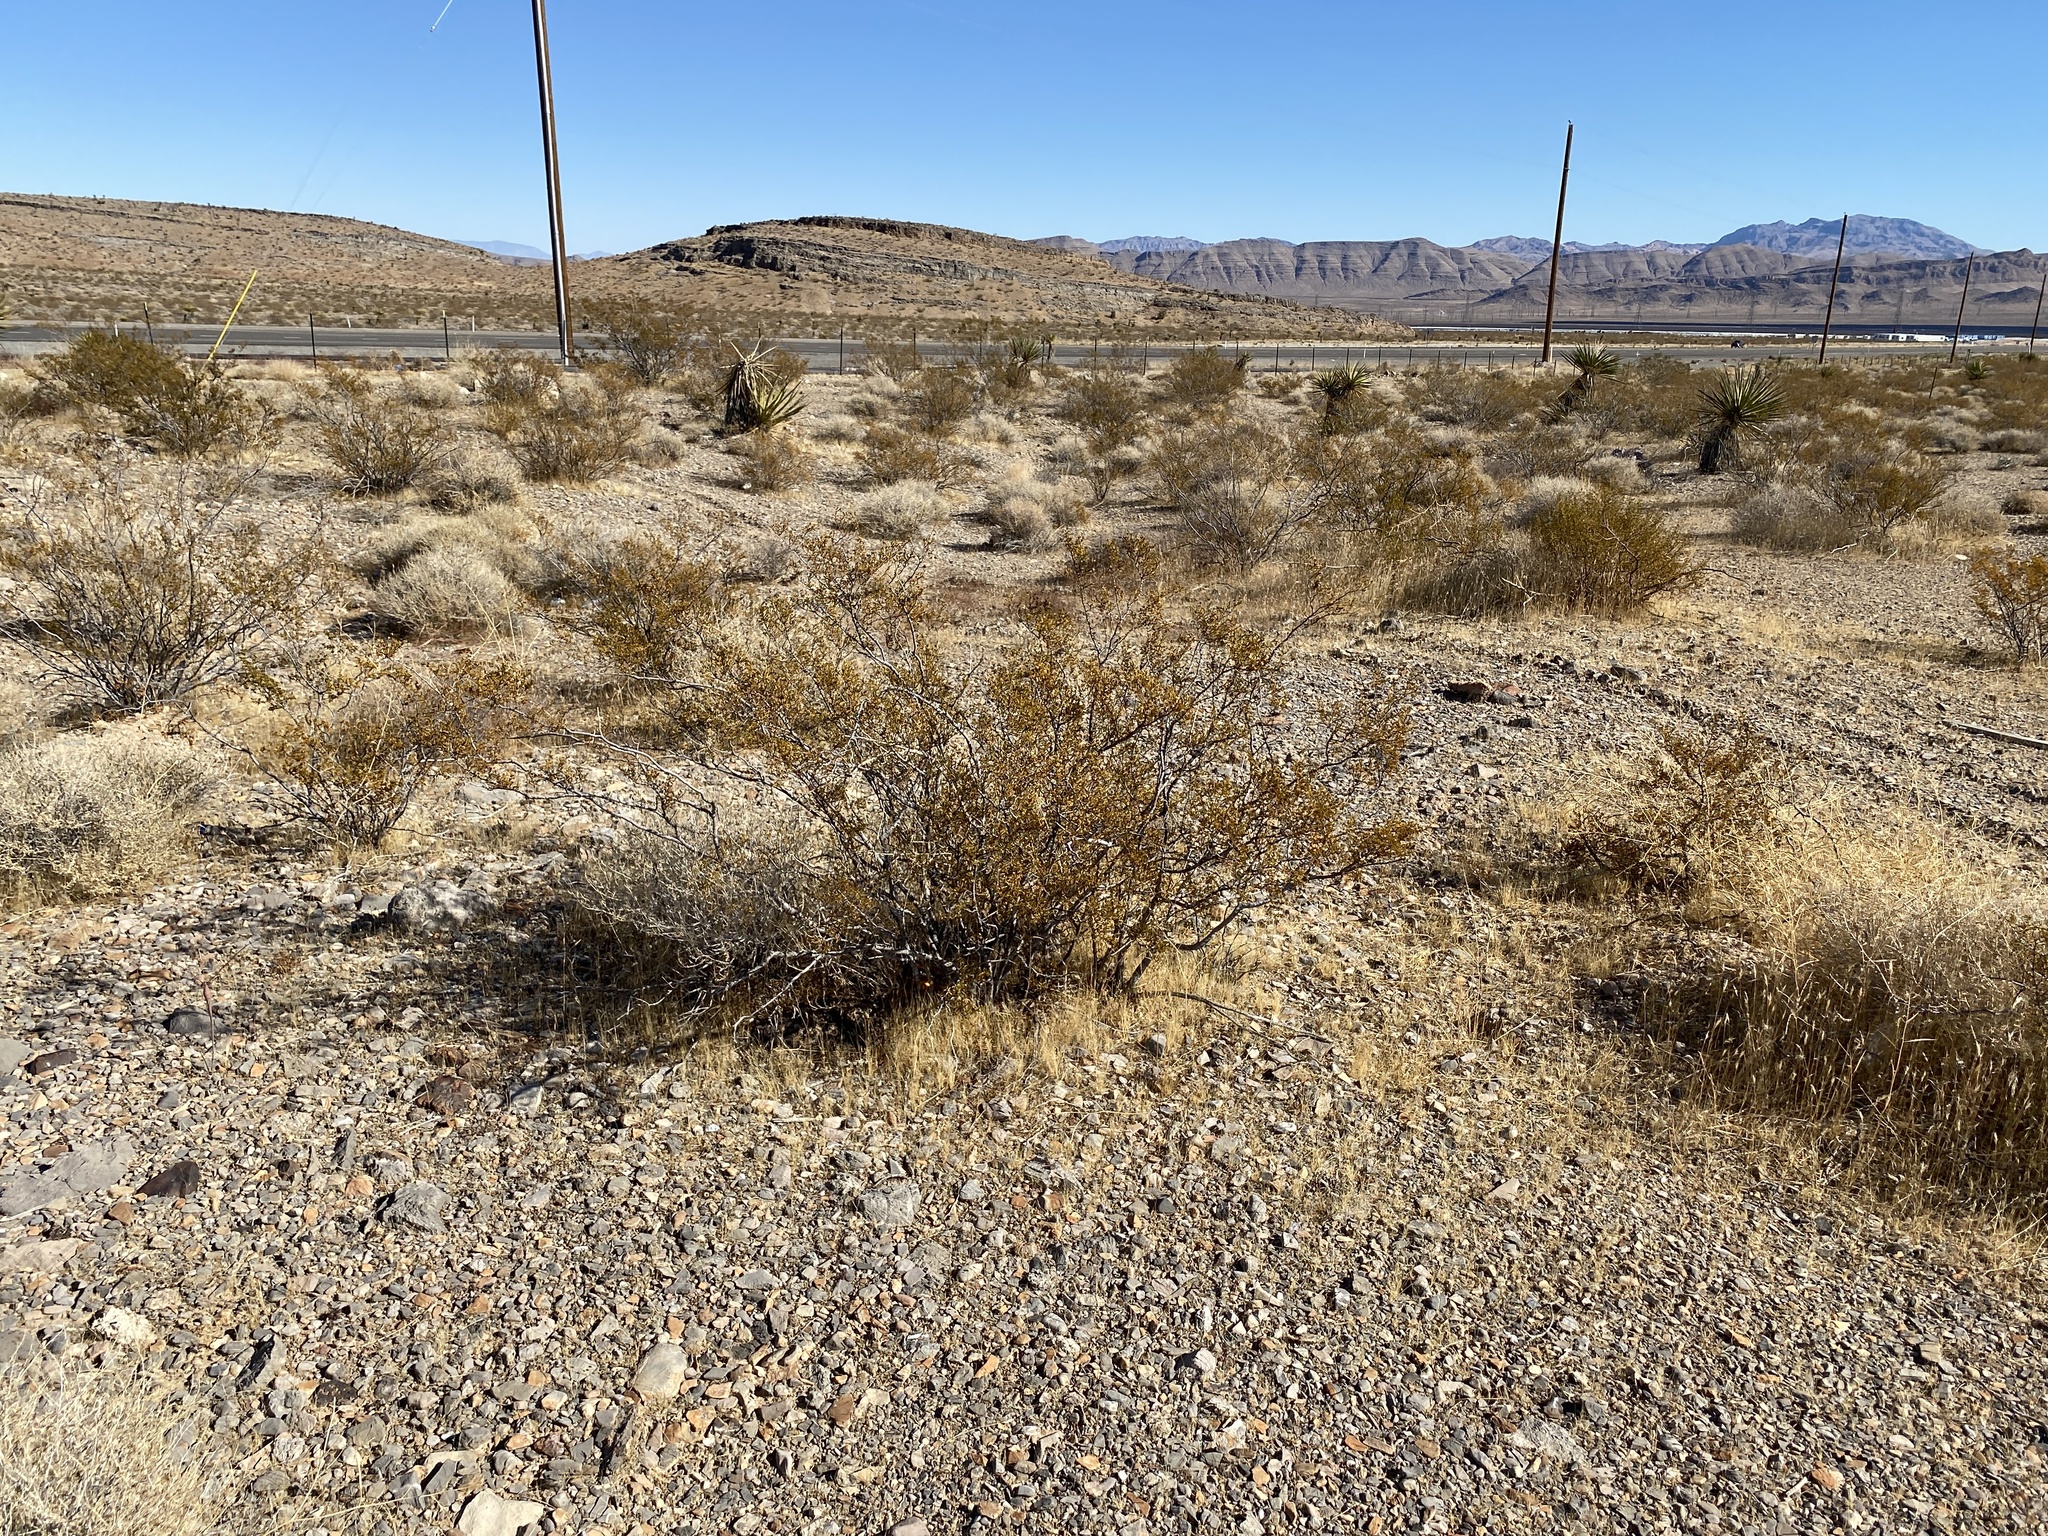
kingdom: Plantae
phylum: Tracheophyta
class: Magnoliopsida
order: Zygophyllales
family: Zygophyllaceae
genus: Larrea
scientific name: Larrea tridentata
